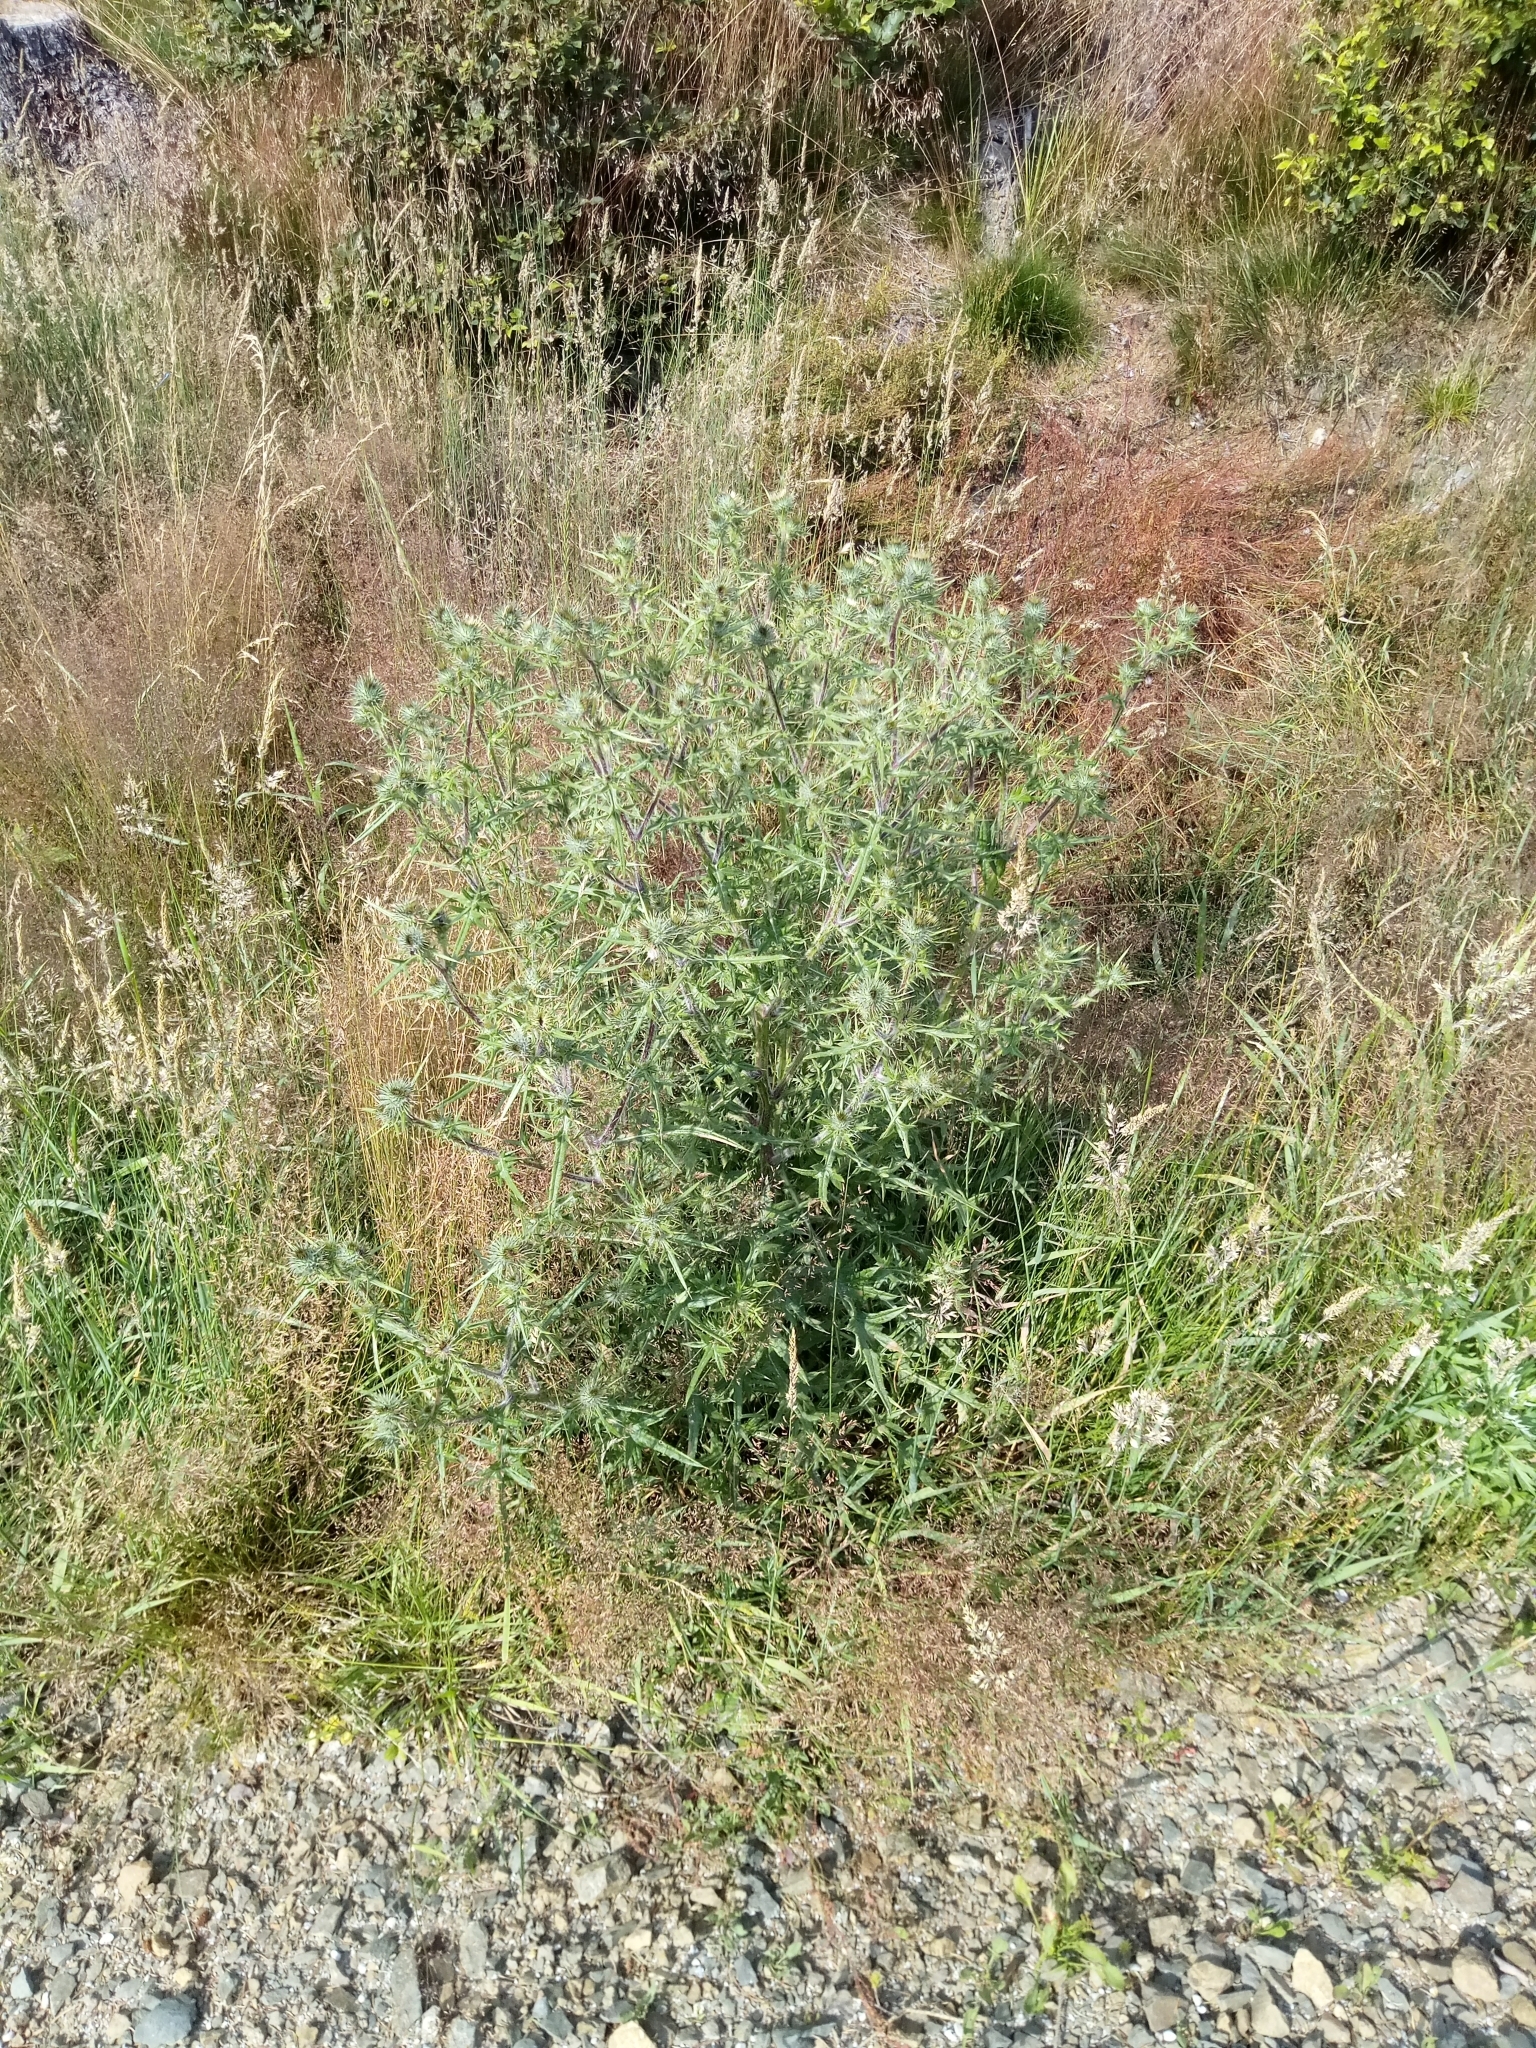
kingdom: Plantae
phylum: Tracheophyta
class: Magnoliopsida
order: Asterales
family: Asteraceae
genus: Cirsium
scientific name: Cirsium vulgare
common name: Bull thistle
